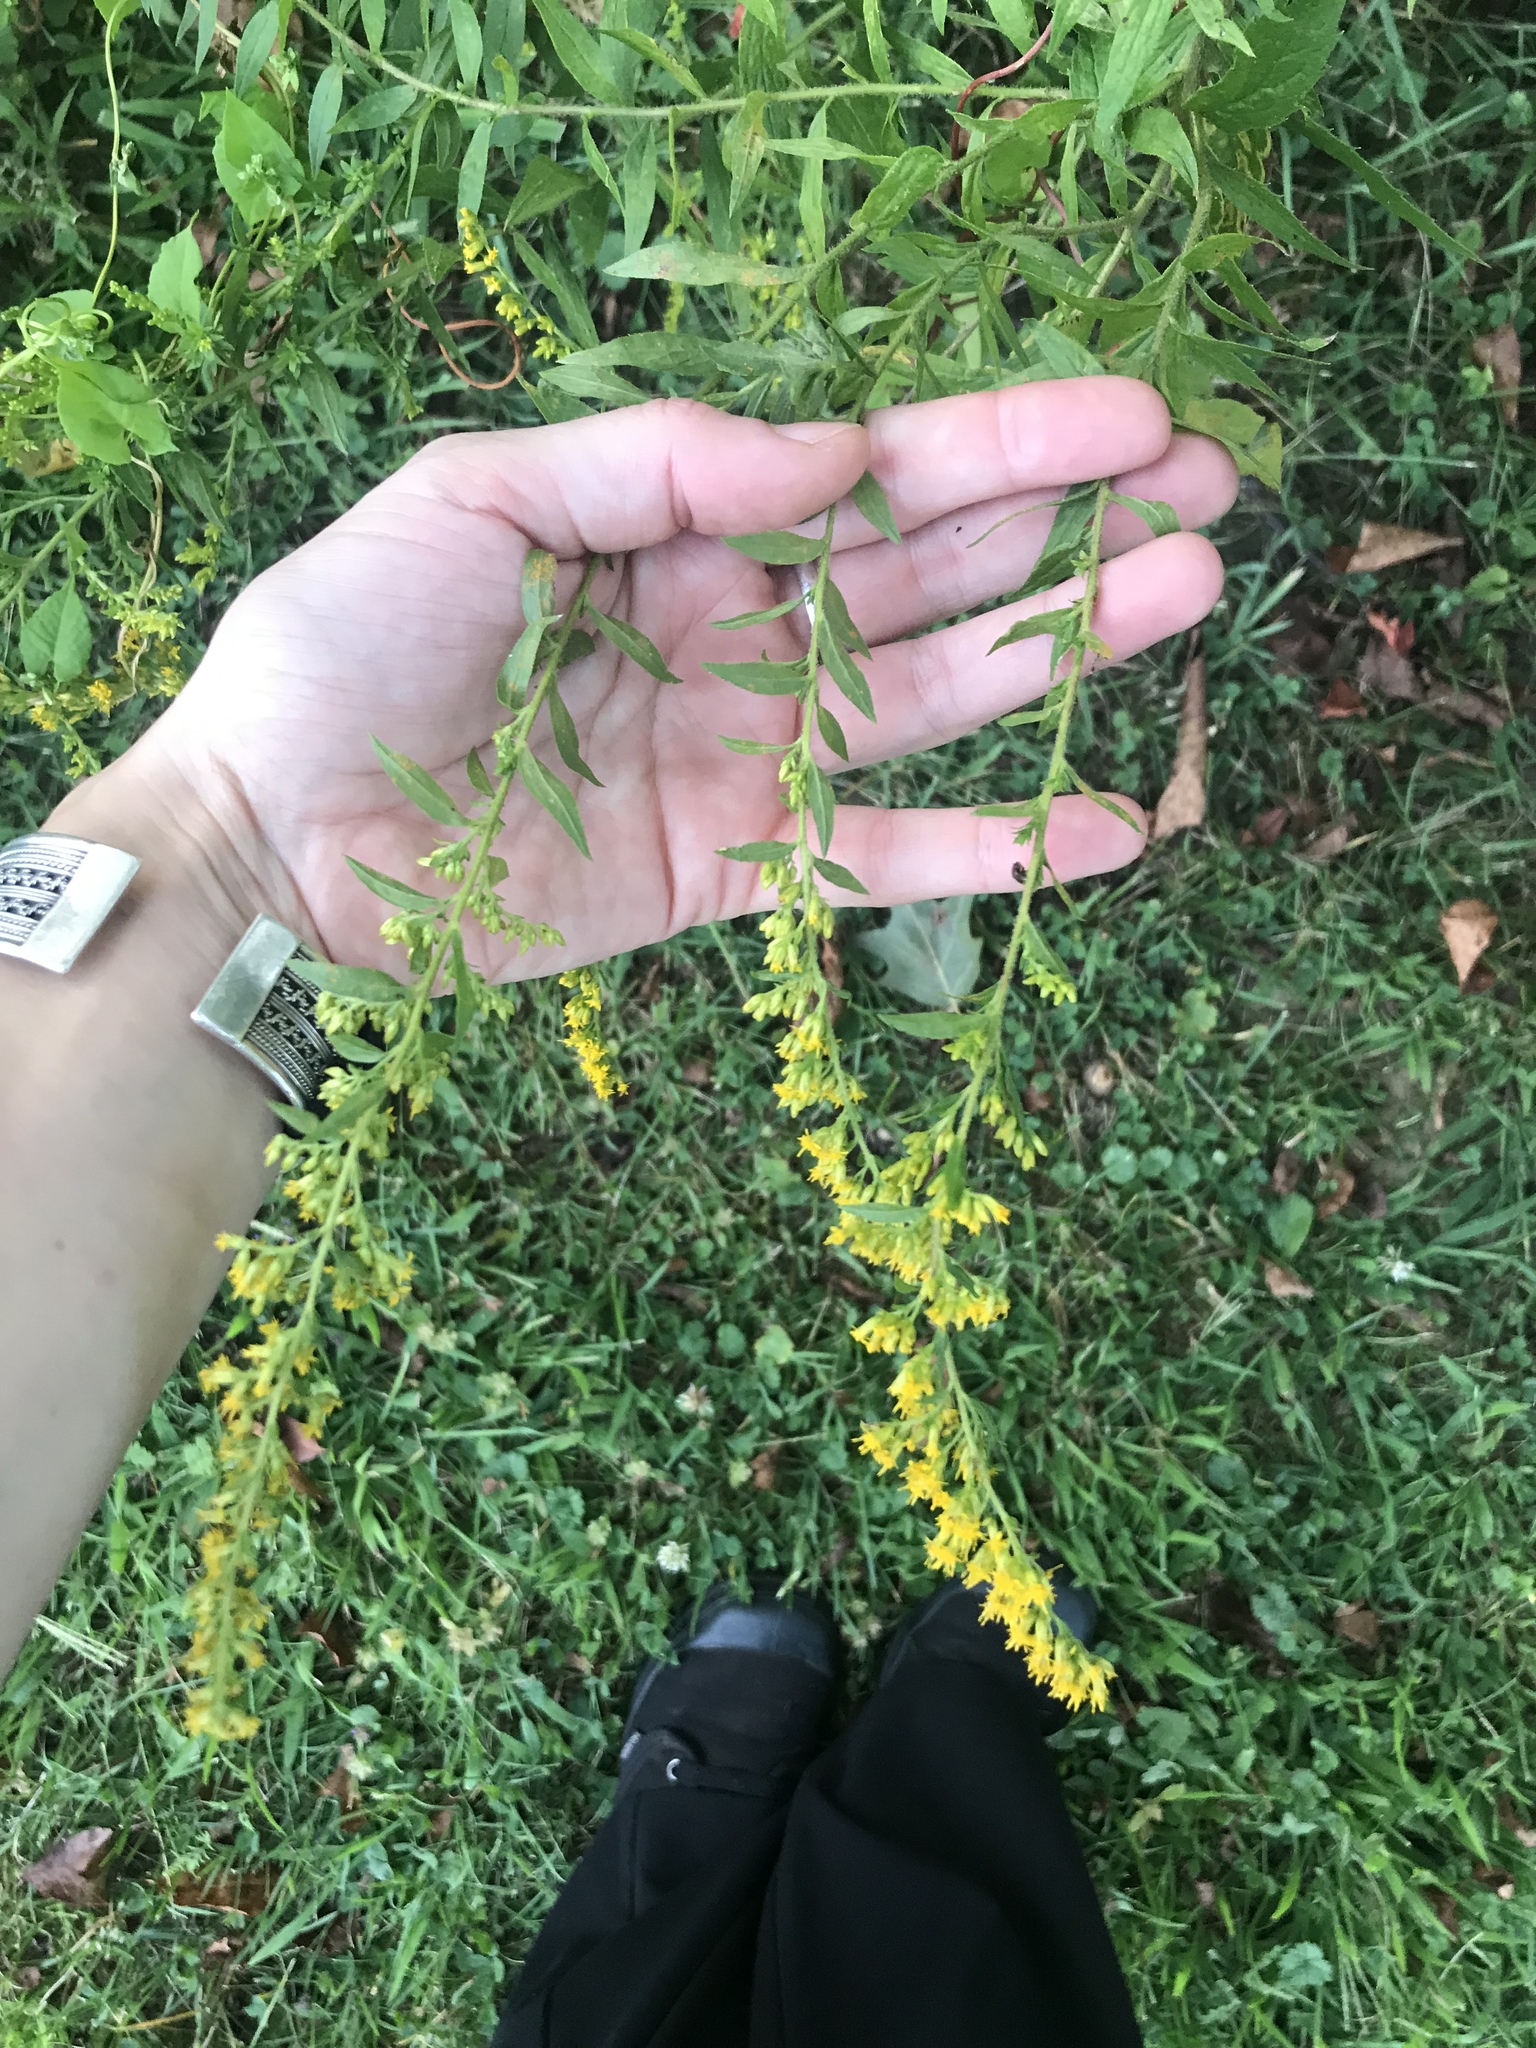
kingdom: Plantae
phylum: Tracheophyta
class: Magnoliopsida
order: Asterales
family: Asteraceae
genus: Solidago
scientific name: Solidago rugosa
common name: Rough-stemmed goldenrod
